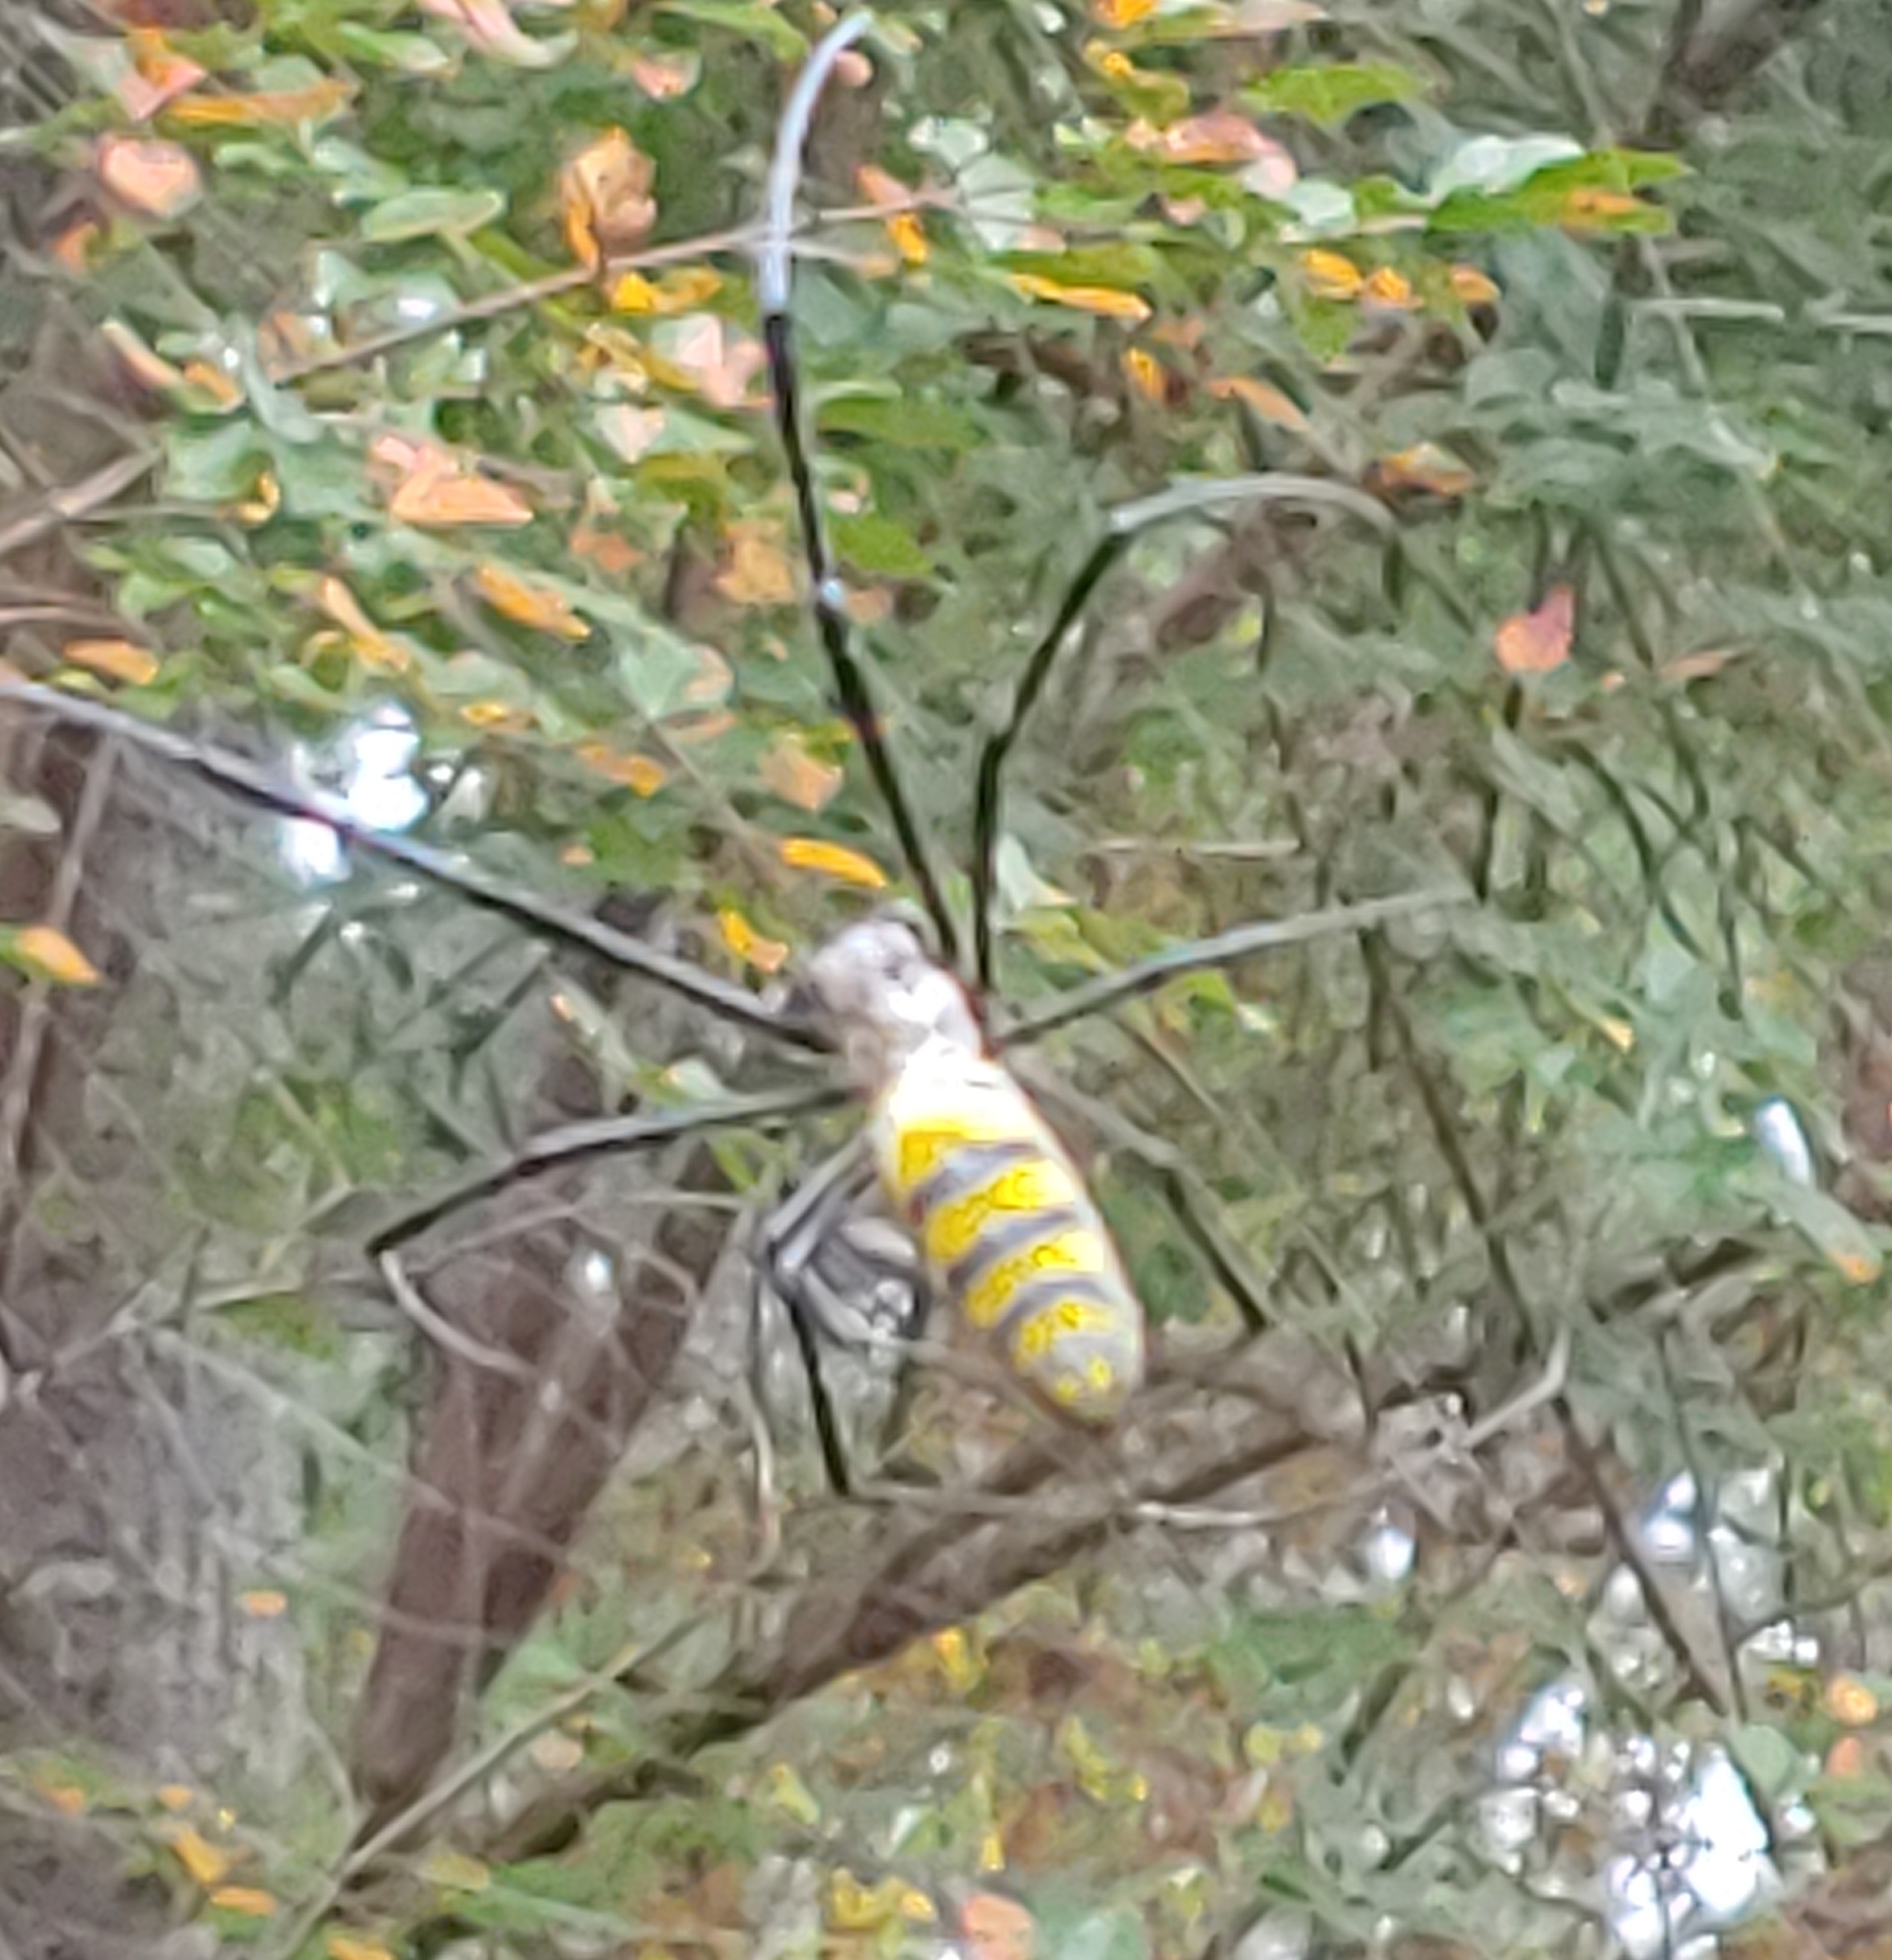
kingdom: Animalia
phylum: Arthropoda
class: Arachnida
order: Araneae
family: Araneidae
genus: Trichonephila
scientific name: Trichonephila clavata
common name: Jorō spider
